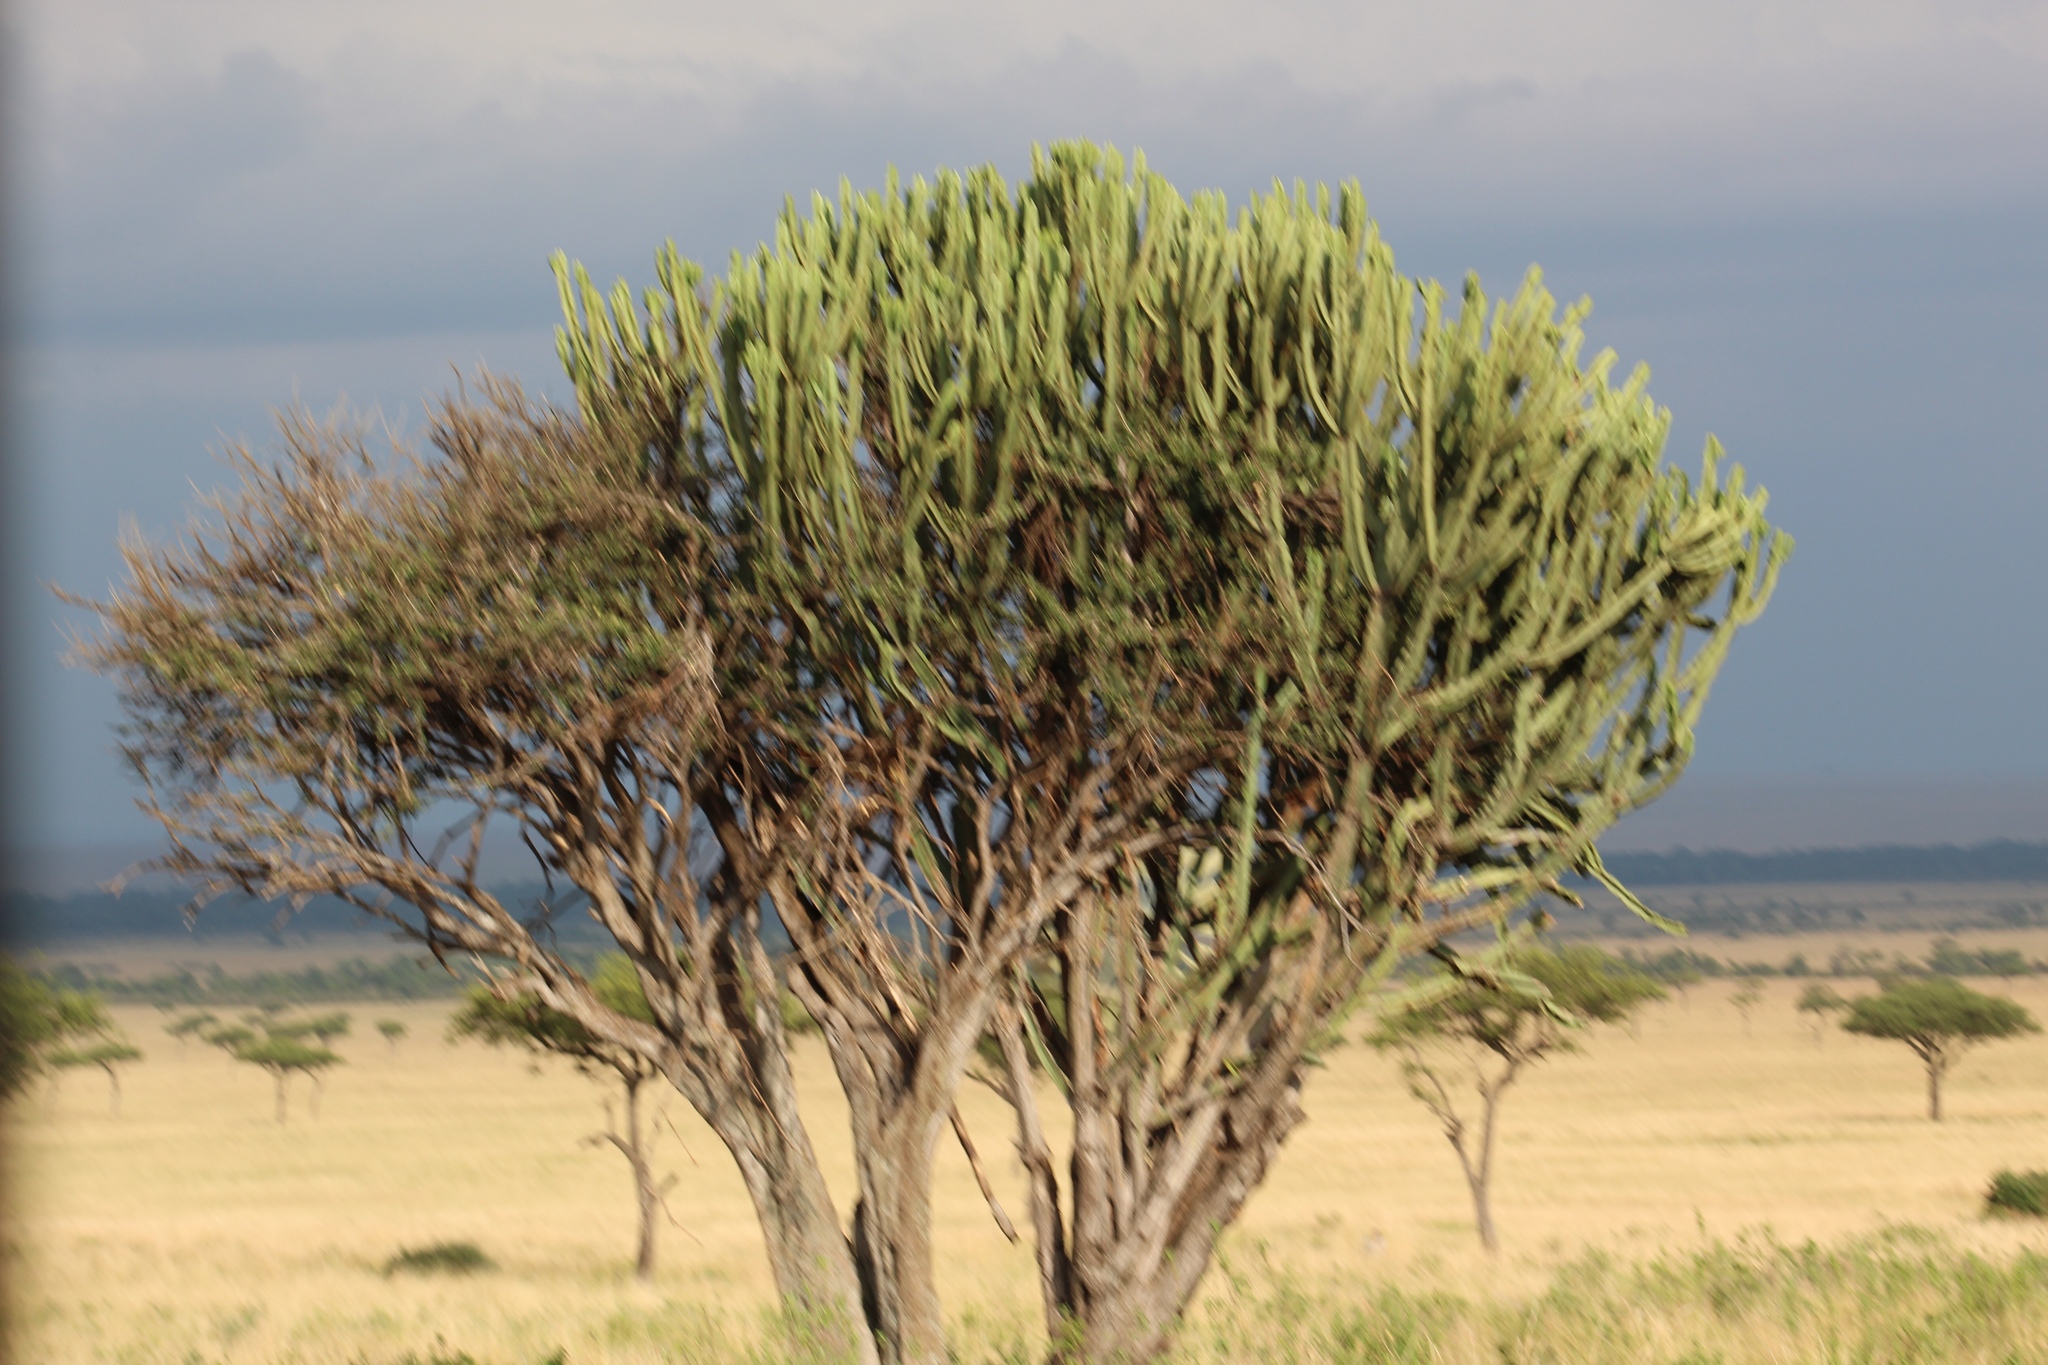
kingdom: Plantae
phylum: Tracheophyta
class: Magnoliopsida
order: Malpighiales
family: Euphorbiaceae
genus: Euphorbia
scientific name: Euphorbia ingens
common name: Cactus spurge
